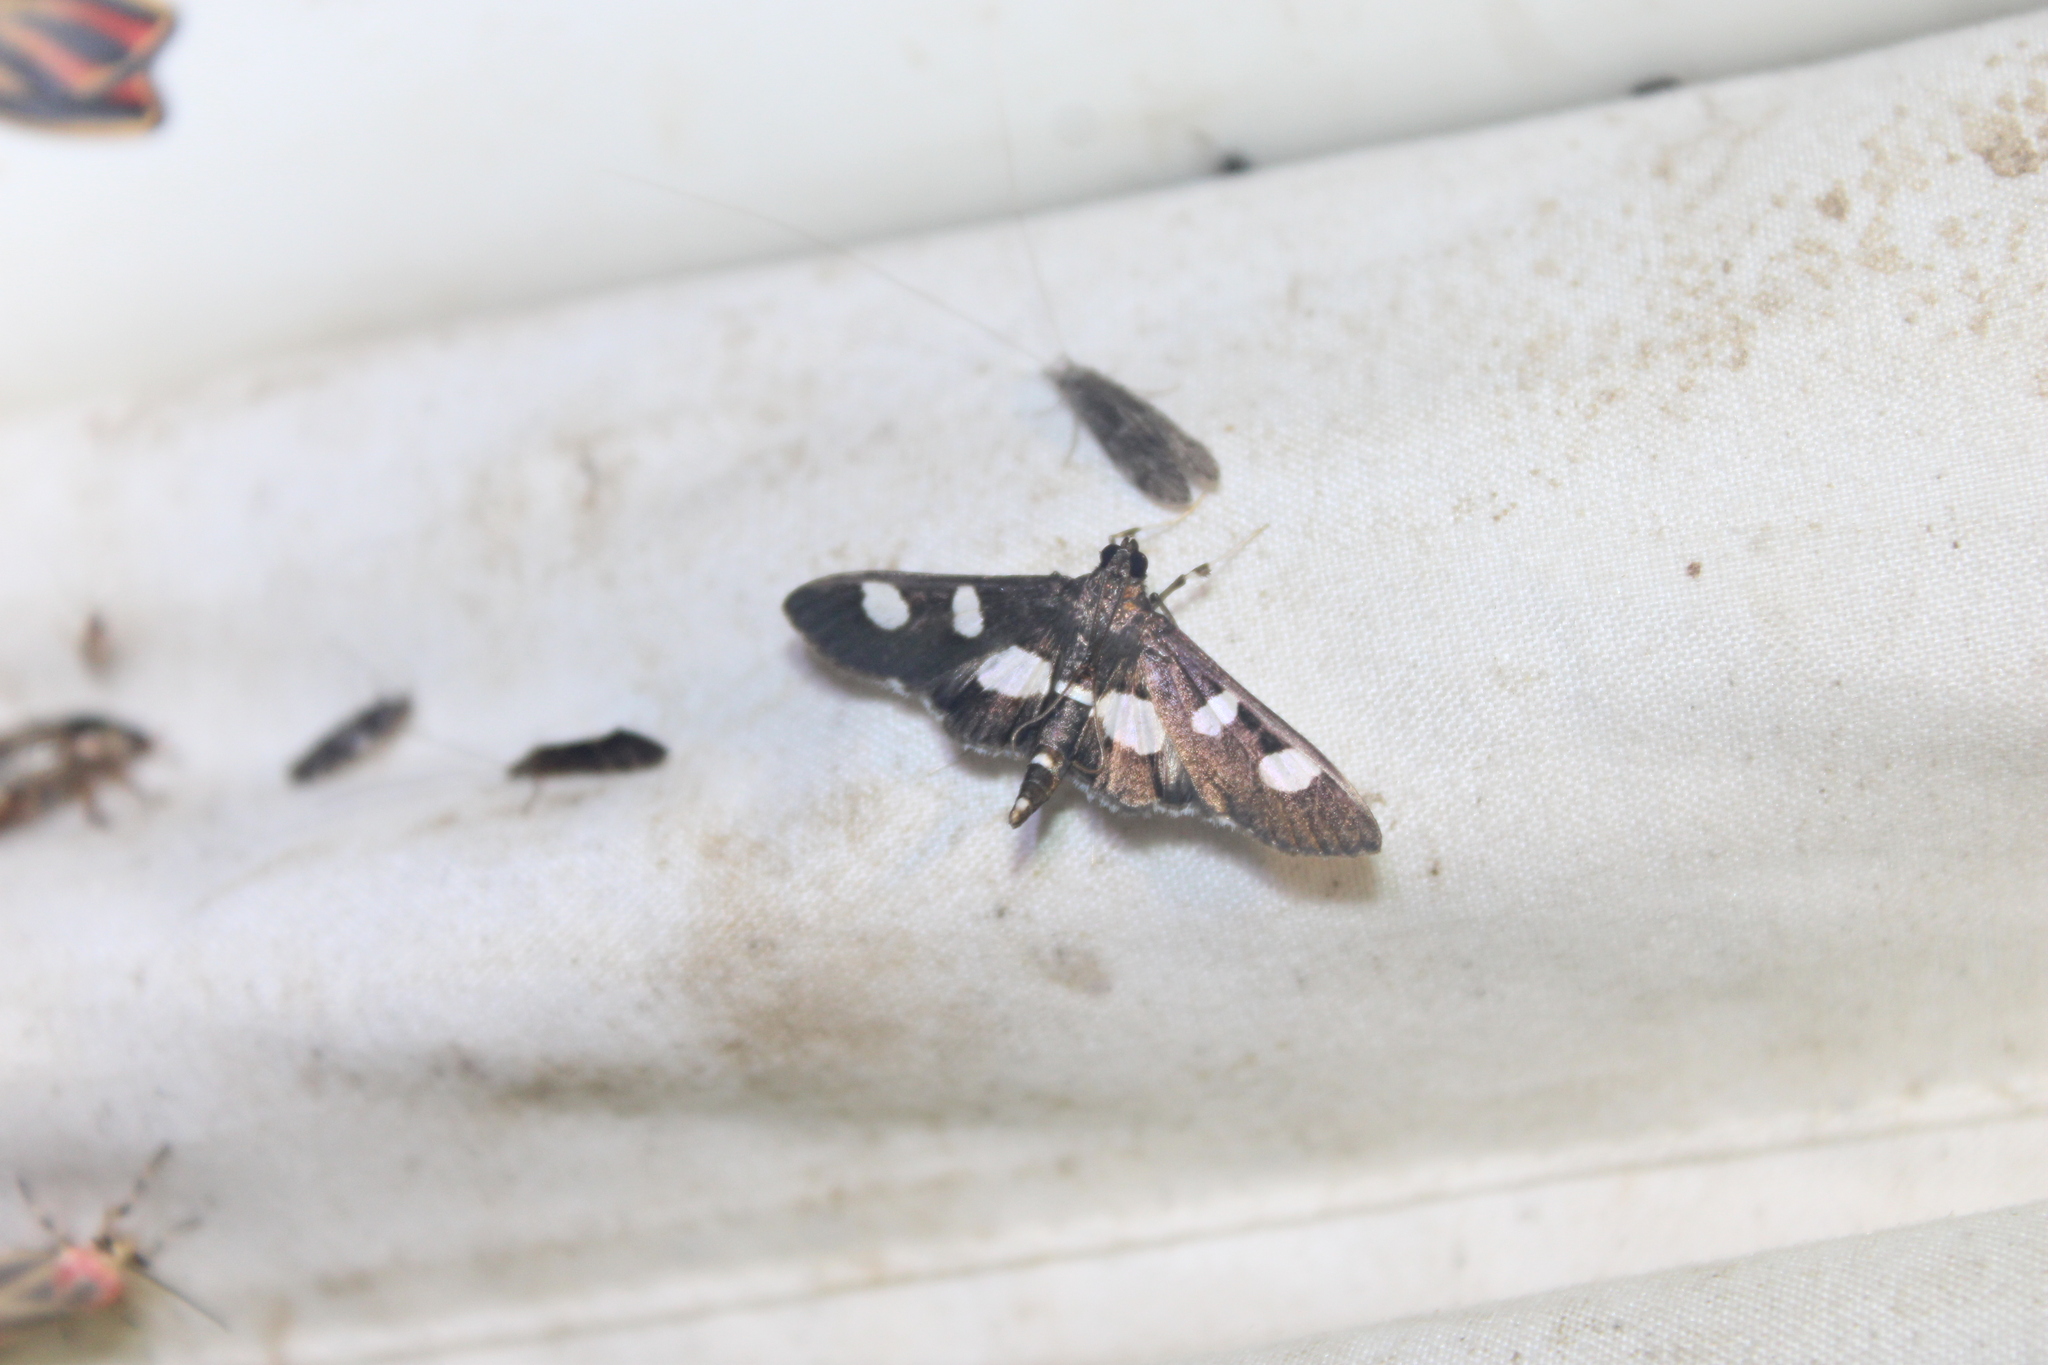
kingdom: Animalia
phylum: Arthropoda
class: Insecta
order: Lepidoptera
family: Crambidae
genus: Desmia
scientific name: Desmia
